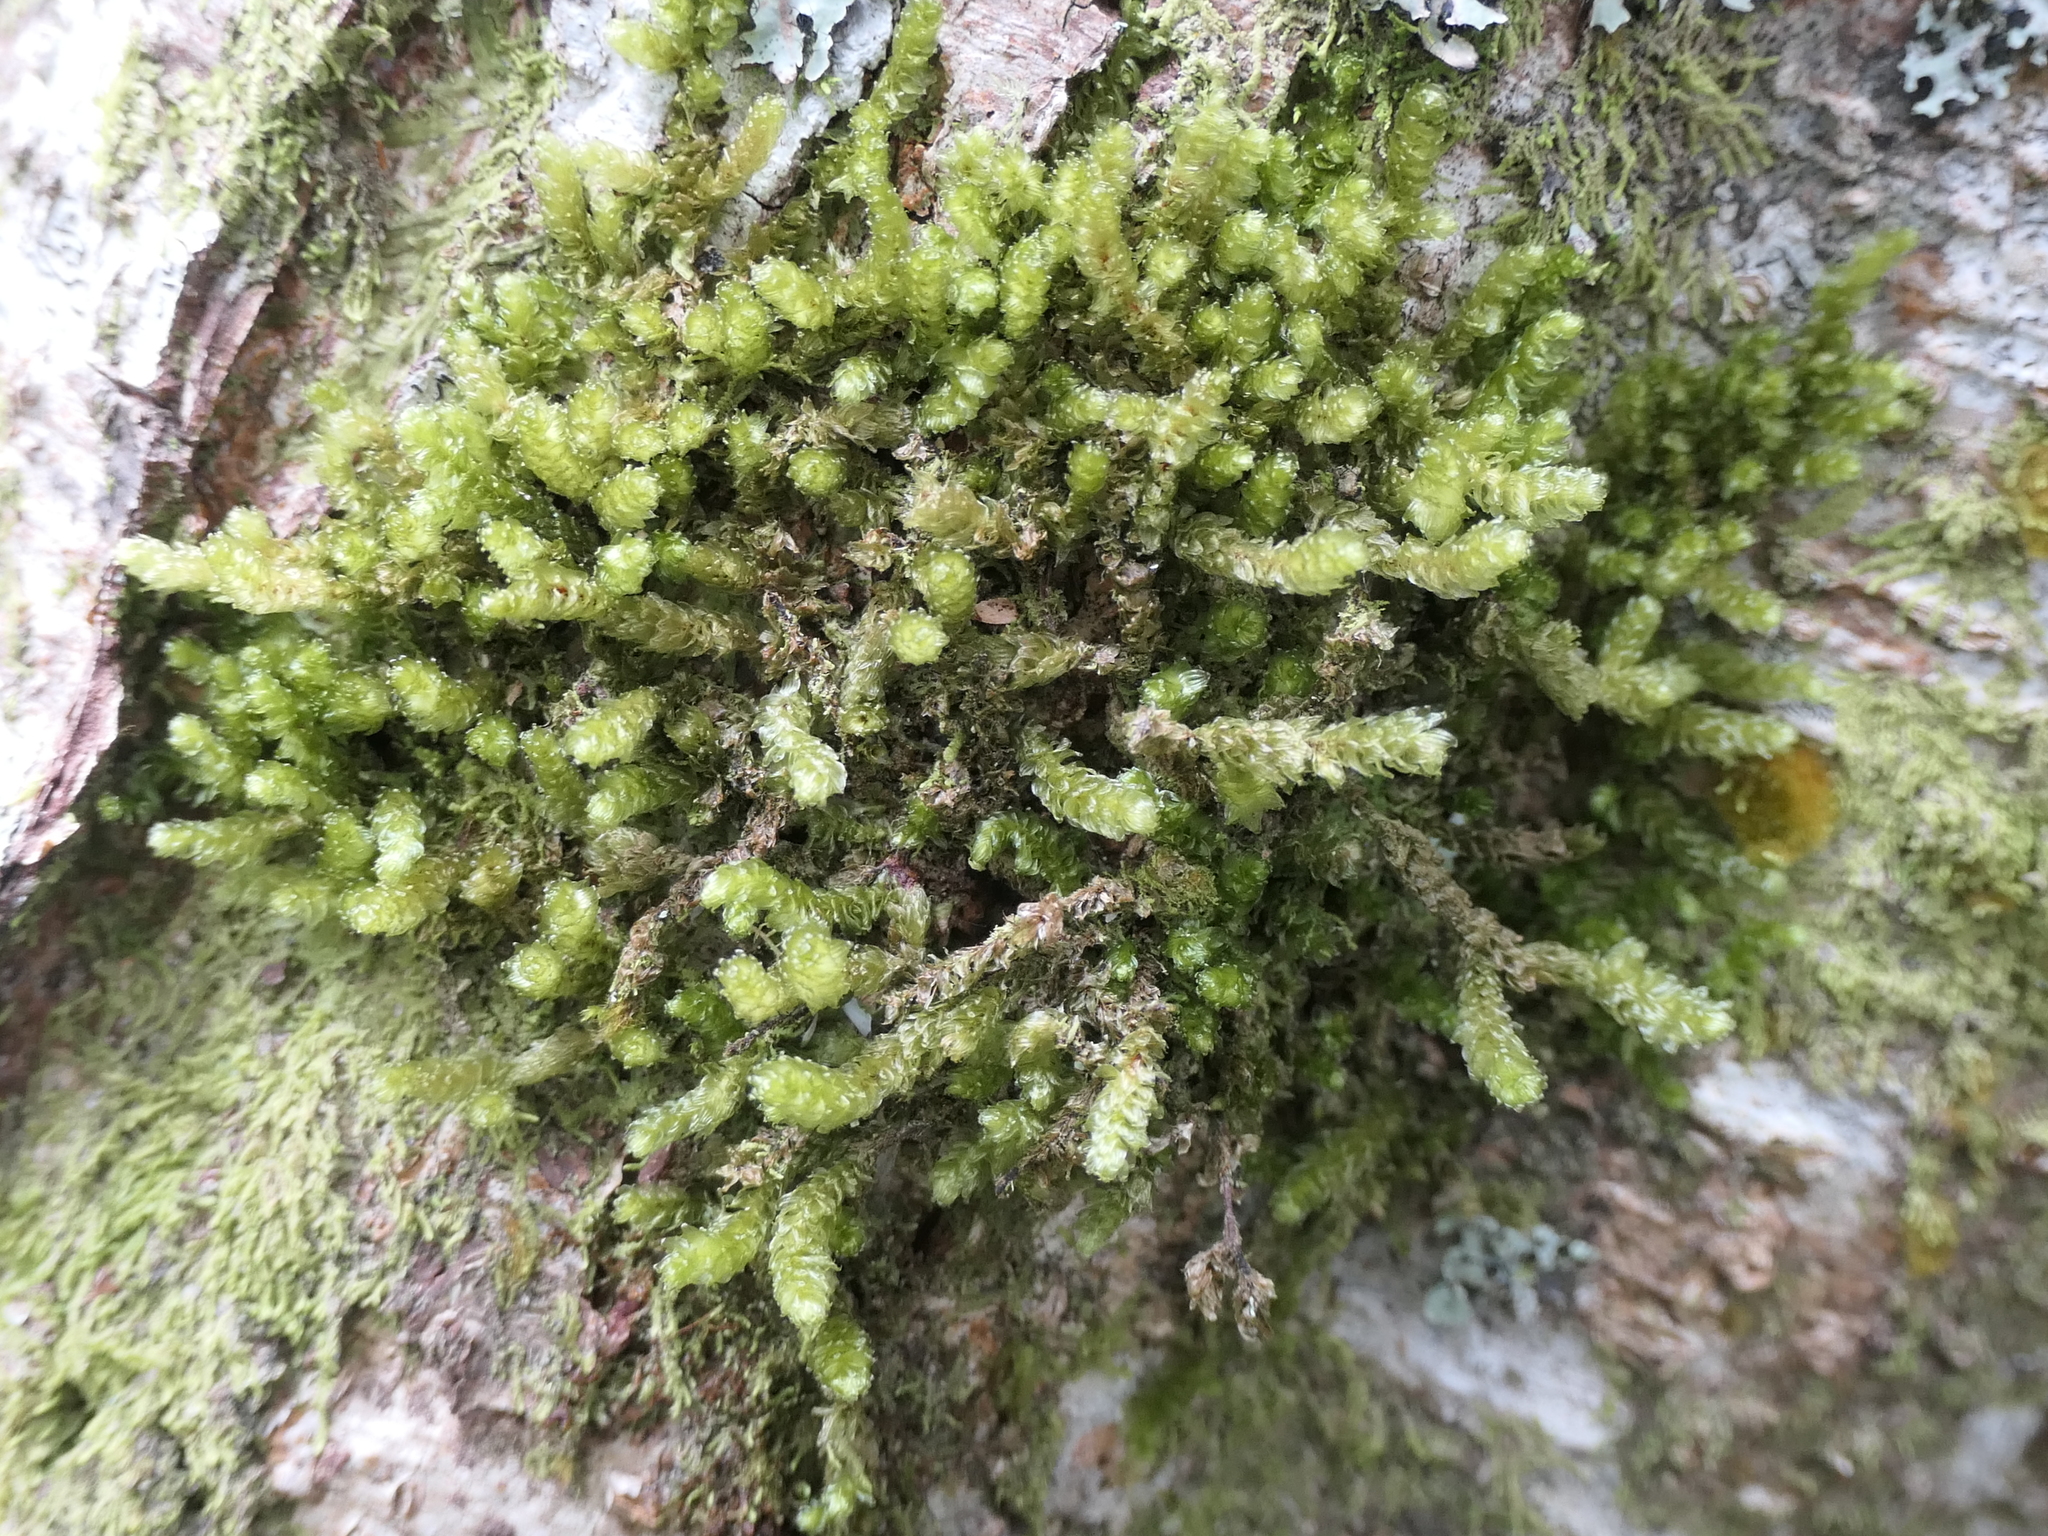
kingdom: Plantae
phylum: Bryophyta
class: Bryopsida
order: Ptychomniales
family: Ptychomniaceae
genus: Cladomnion
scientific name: Cladomnion ericoides
